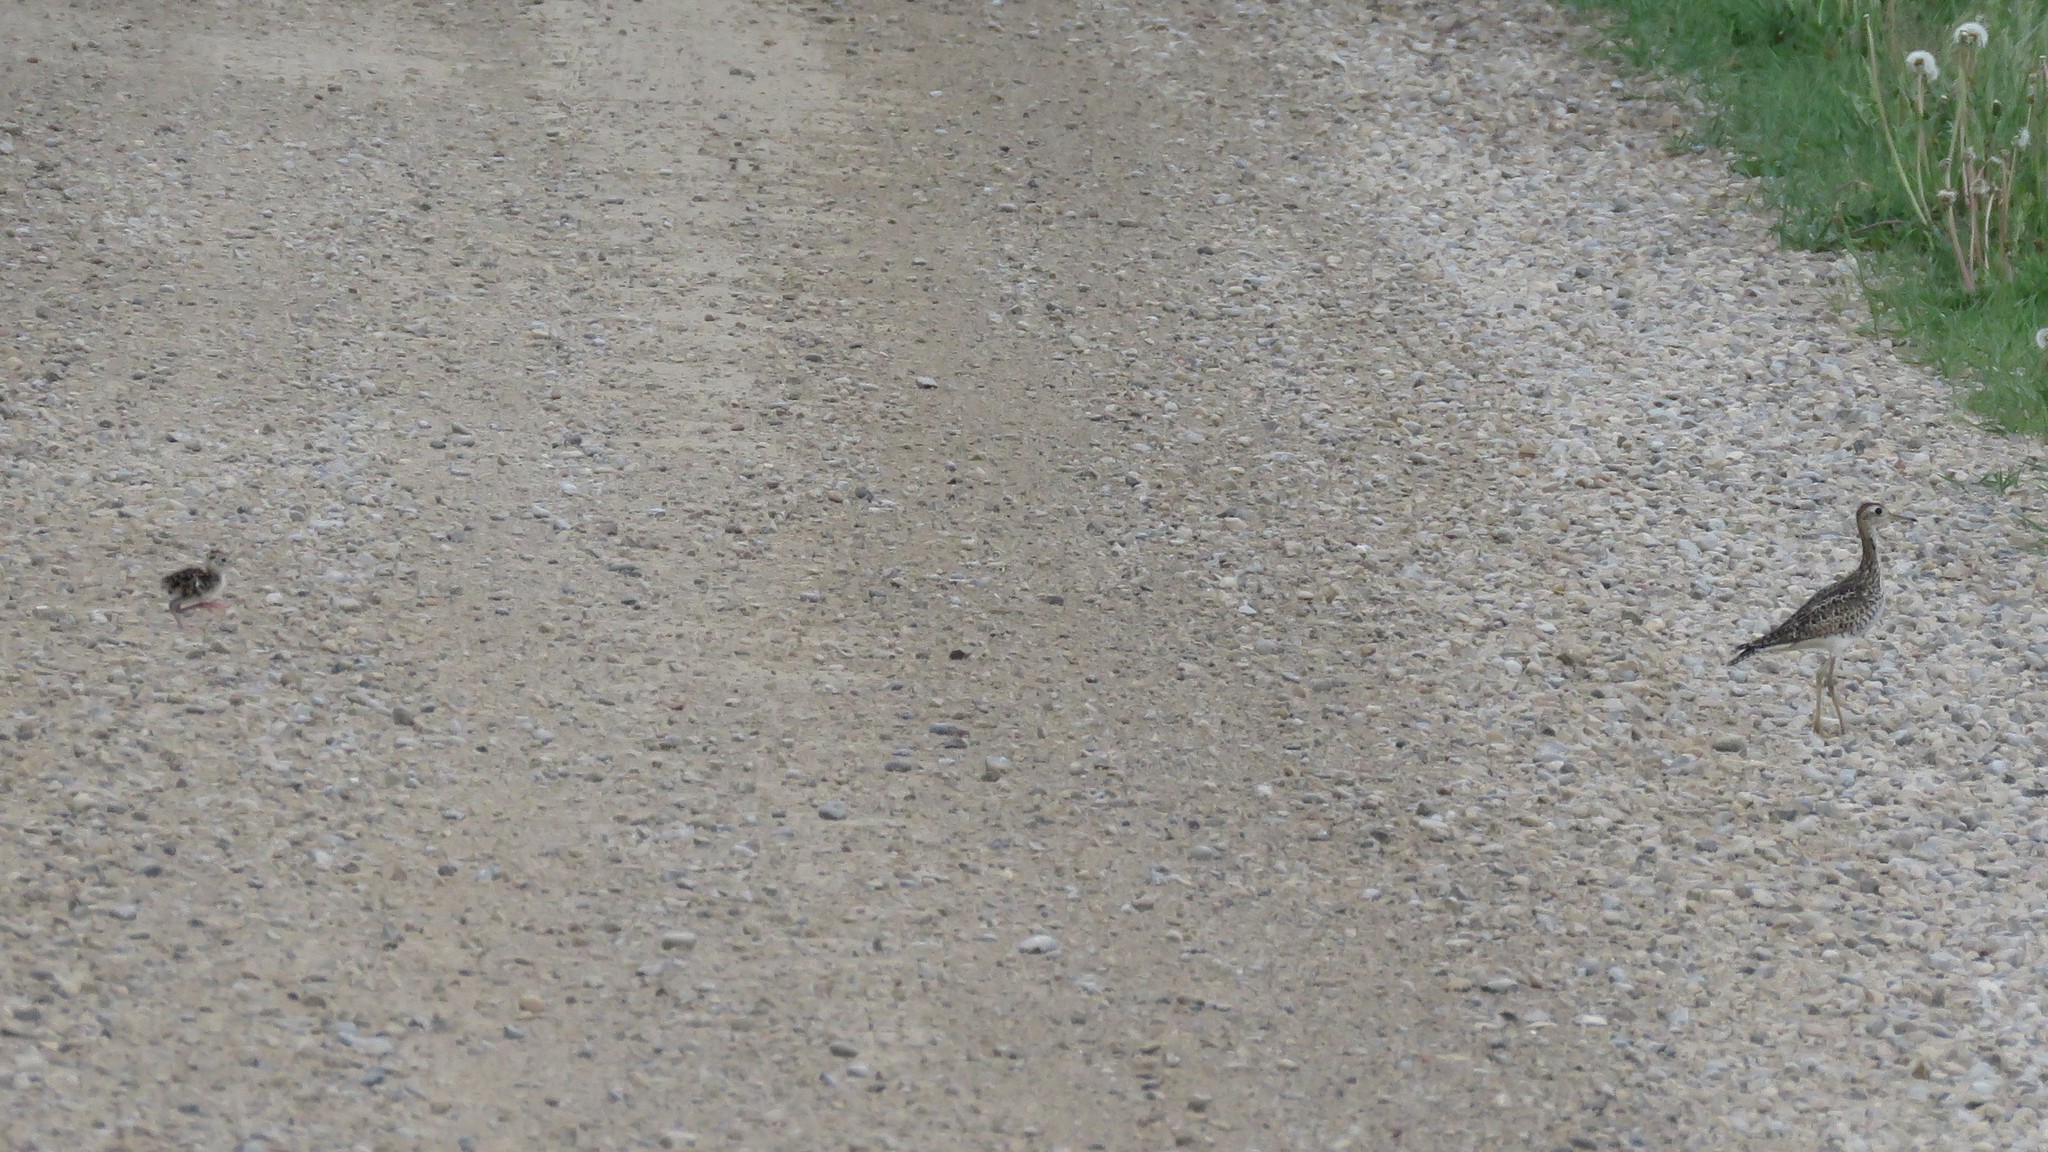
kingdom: Animalia
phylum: Chordata
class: Aves
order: Charadriiformes
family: Scolopacidae
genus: Bartramia
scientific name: Bartramia longicauda
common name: Upland sandpiper
